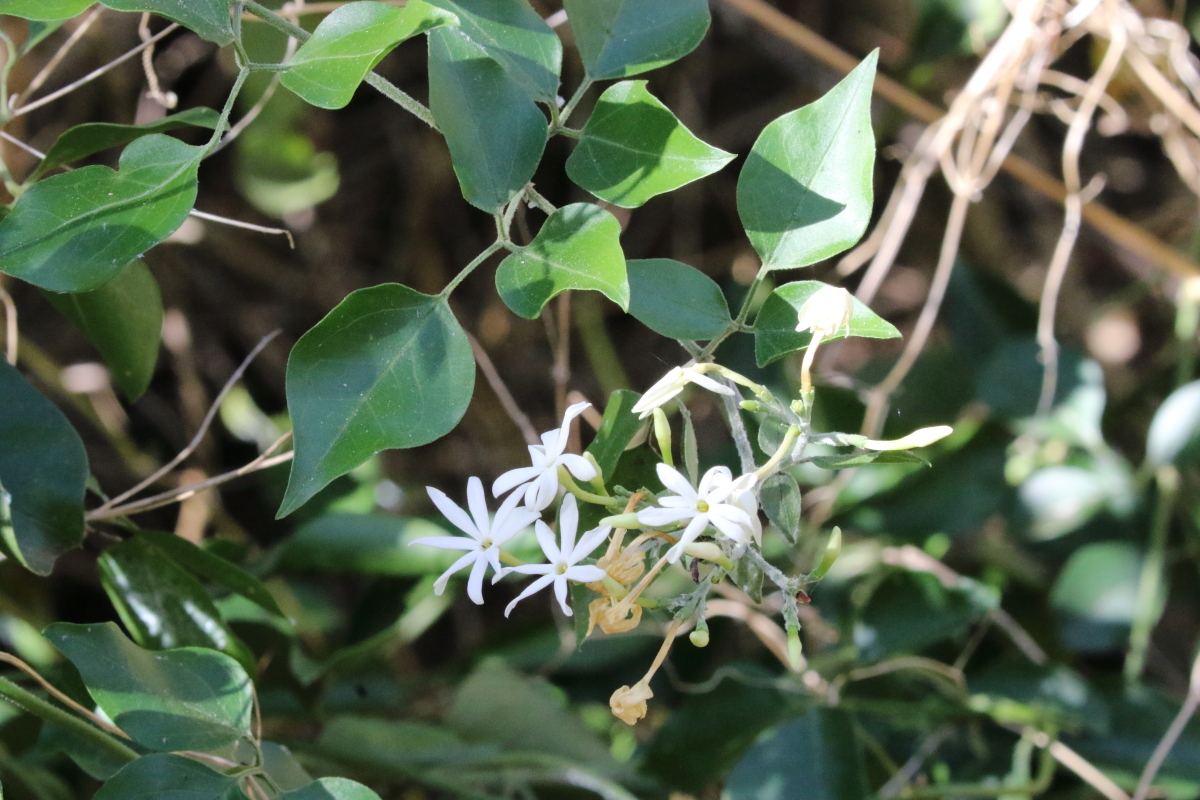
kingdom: Plantae
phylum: Tracheophyta
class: Magnoliopsida
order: Lamiales
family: Oleaceae
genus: Jasminum
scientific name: Jasminum fluminense
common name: Brazilian jasmine
